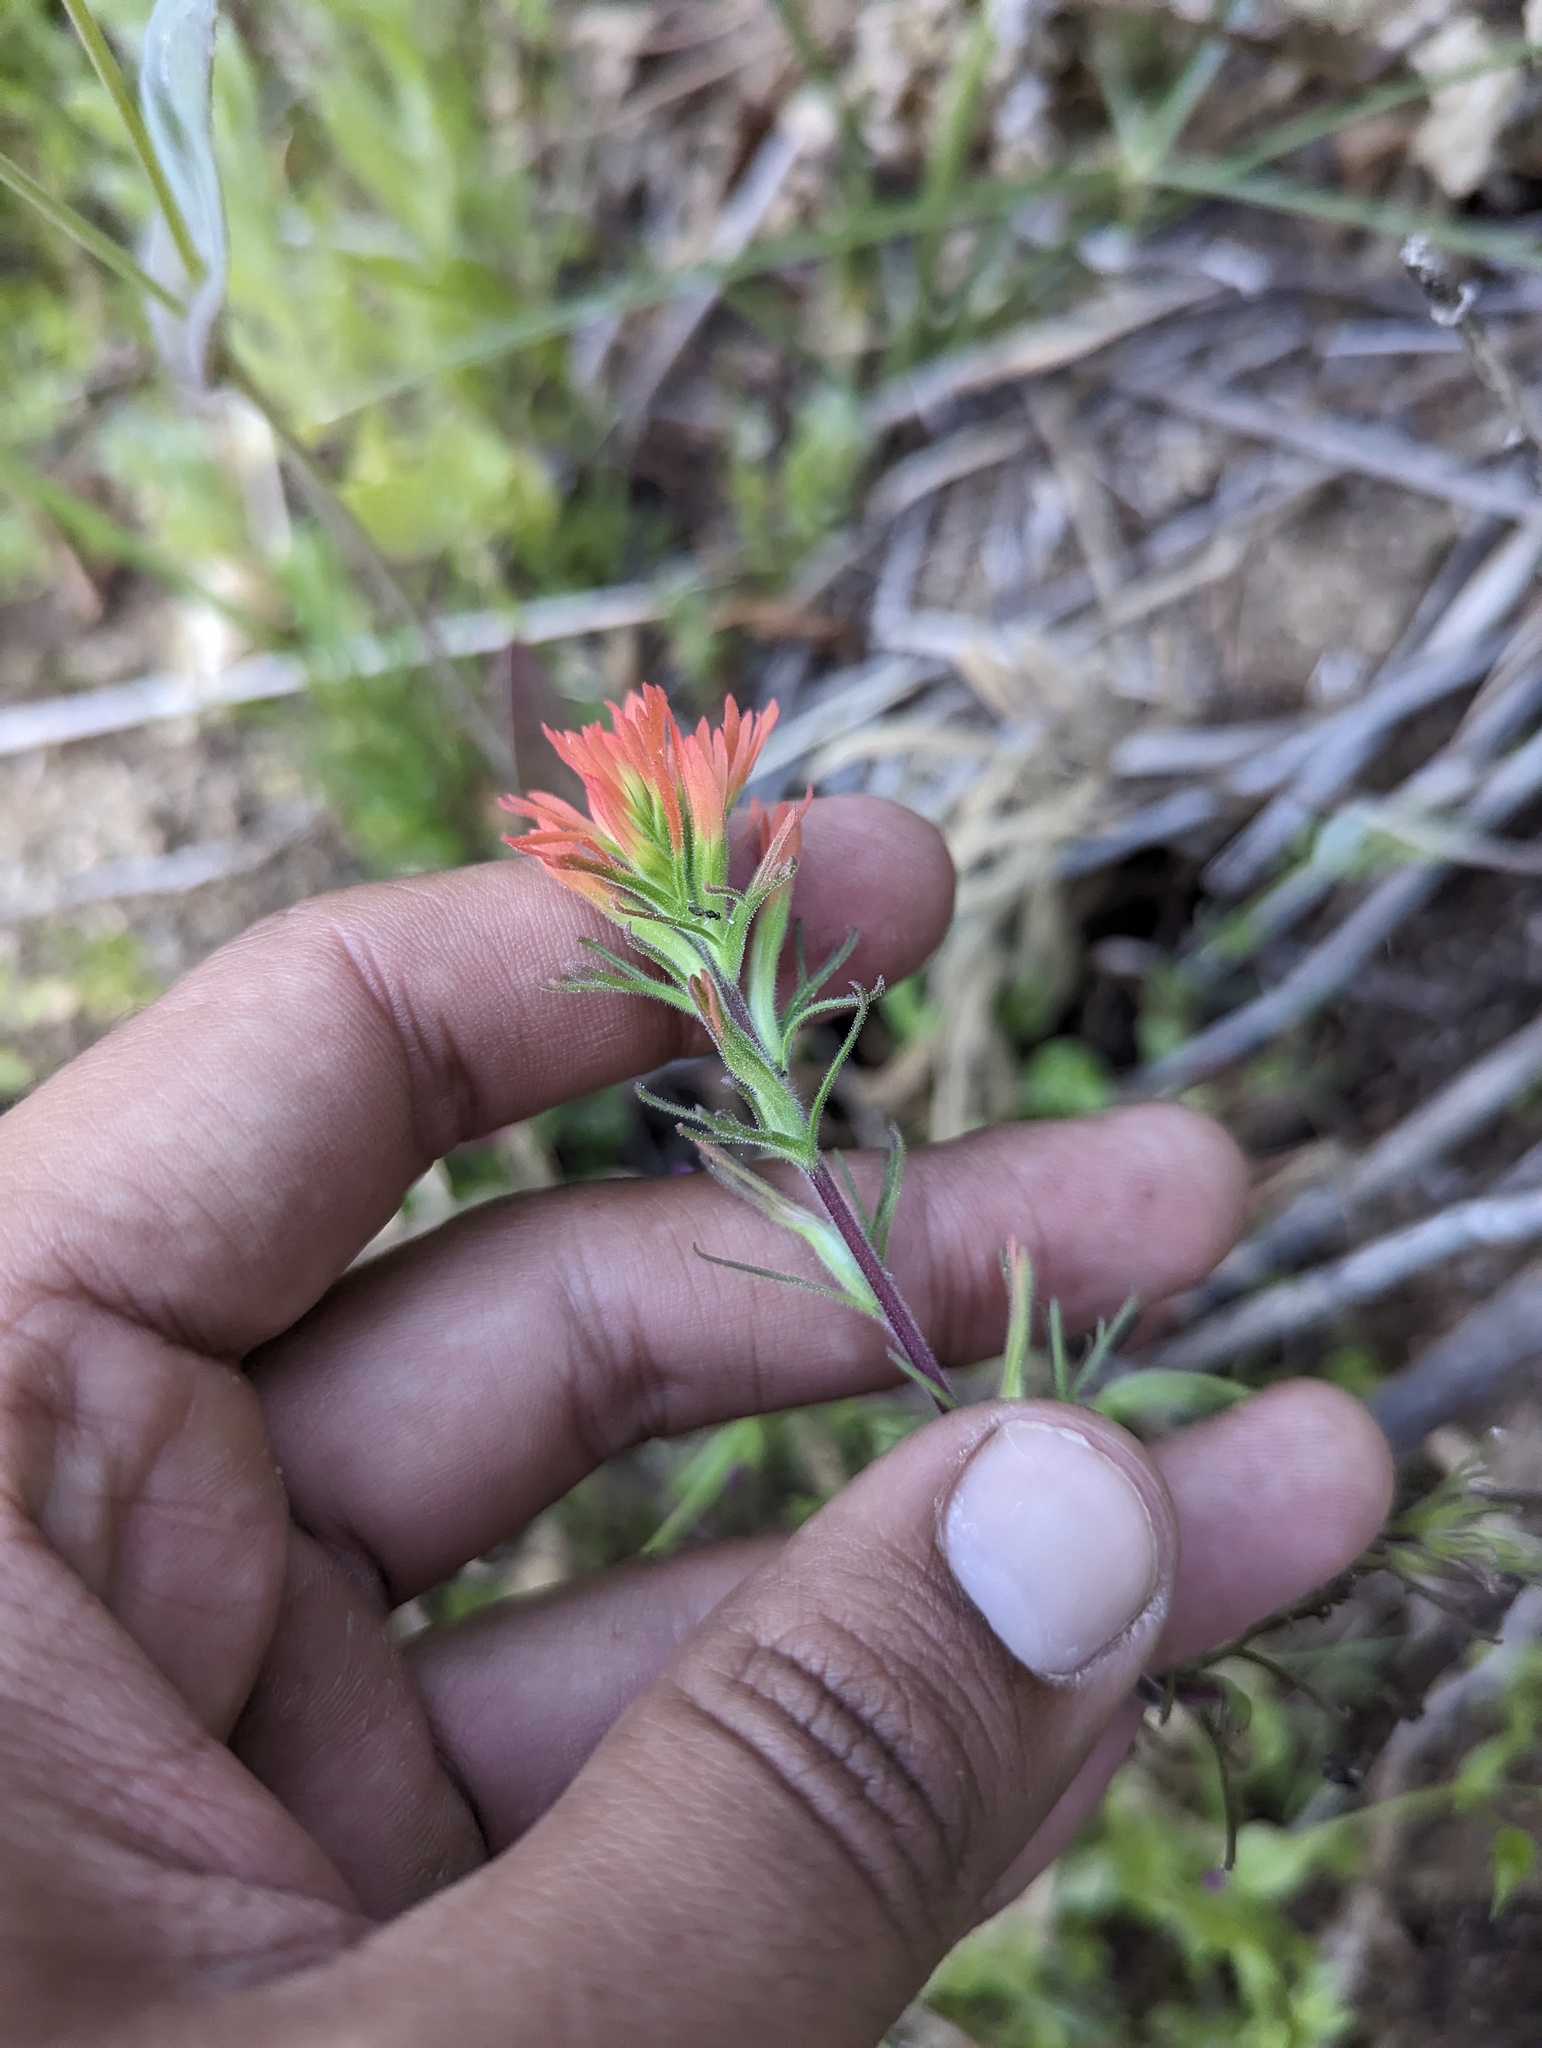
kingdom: Plantae
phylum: Tracheophyta
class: Magnoliopsida
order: Lamiales
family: Orobanchaceae
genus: Castilleja
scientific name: Castilleja bryantii
